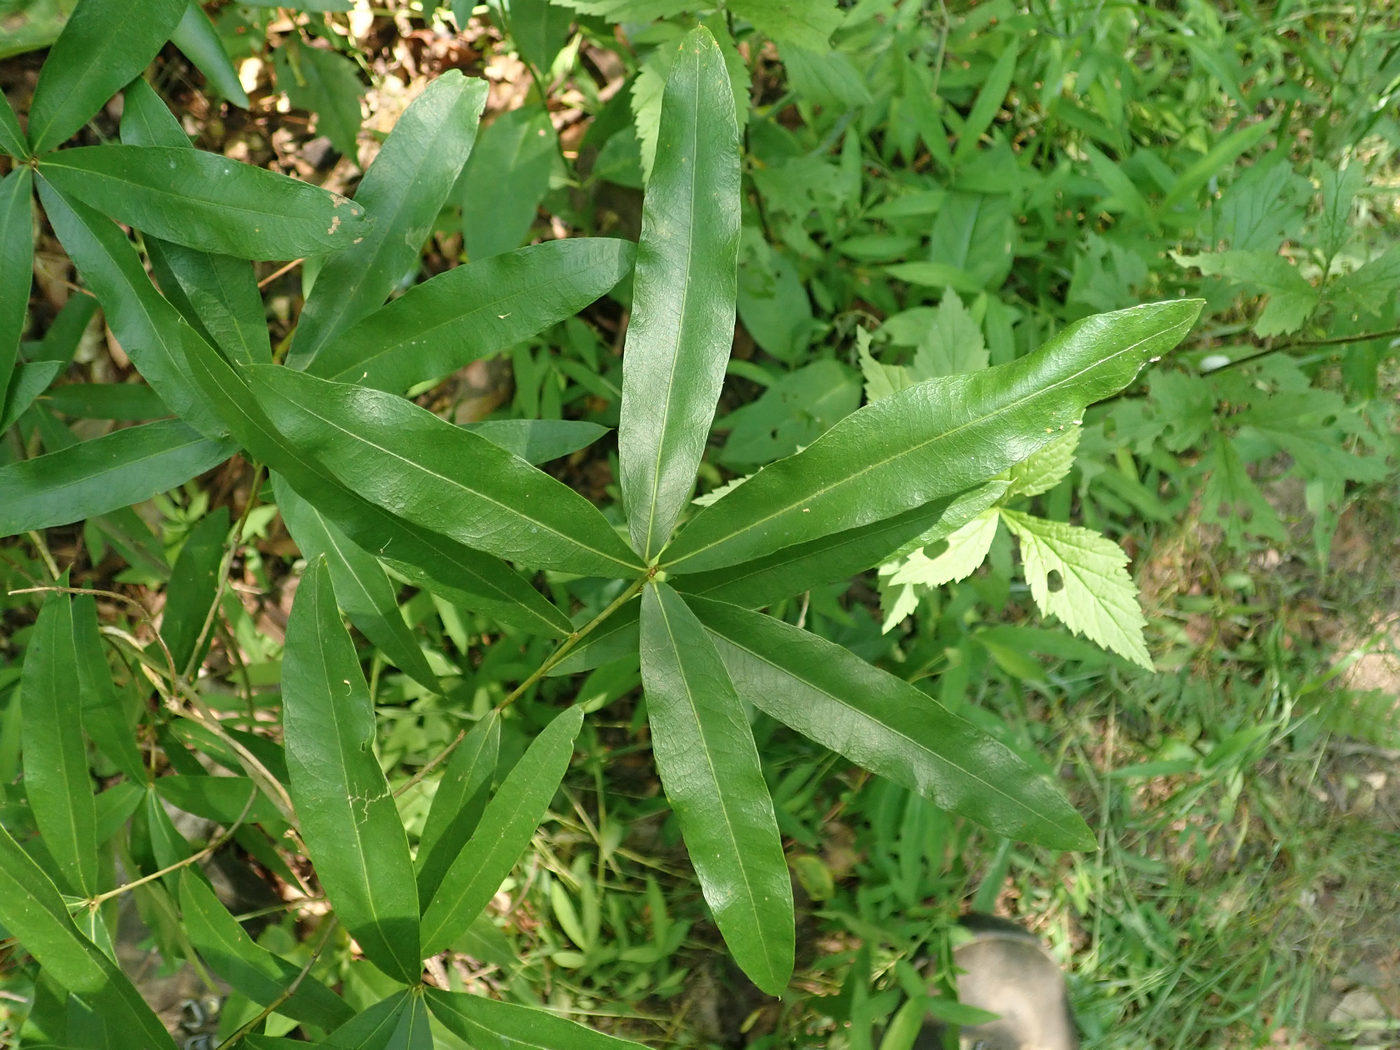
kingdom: Plantae
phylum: Tracheophyta
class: Magnoliopsida
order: Fagales
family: Fagaceae
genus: Quercus
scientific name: Quercus phellos
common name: Willow oak
